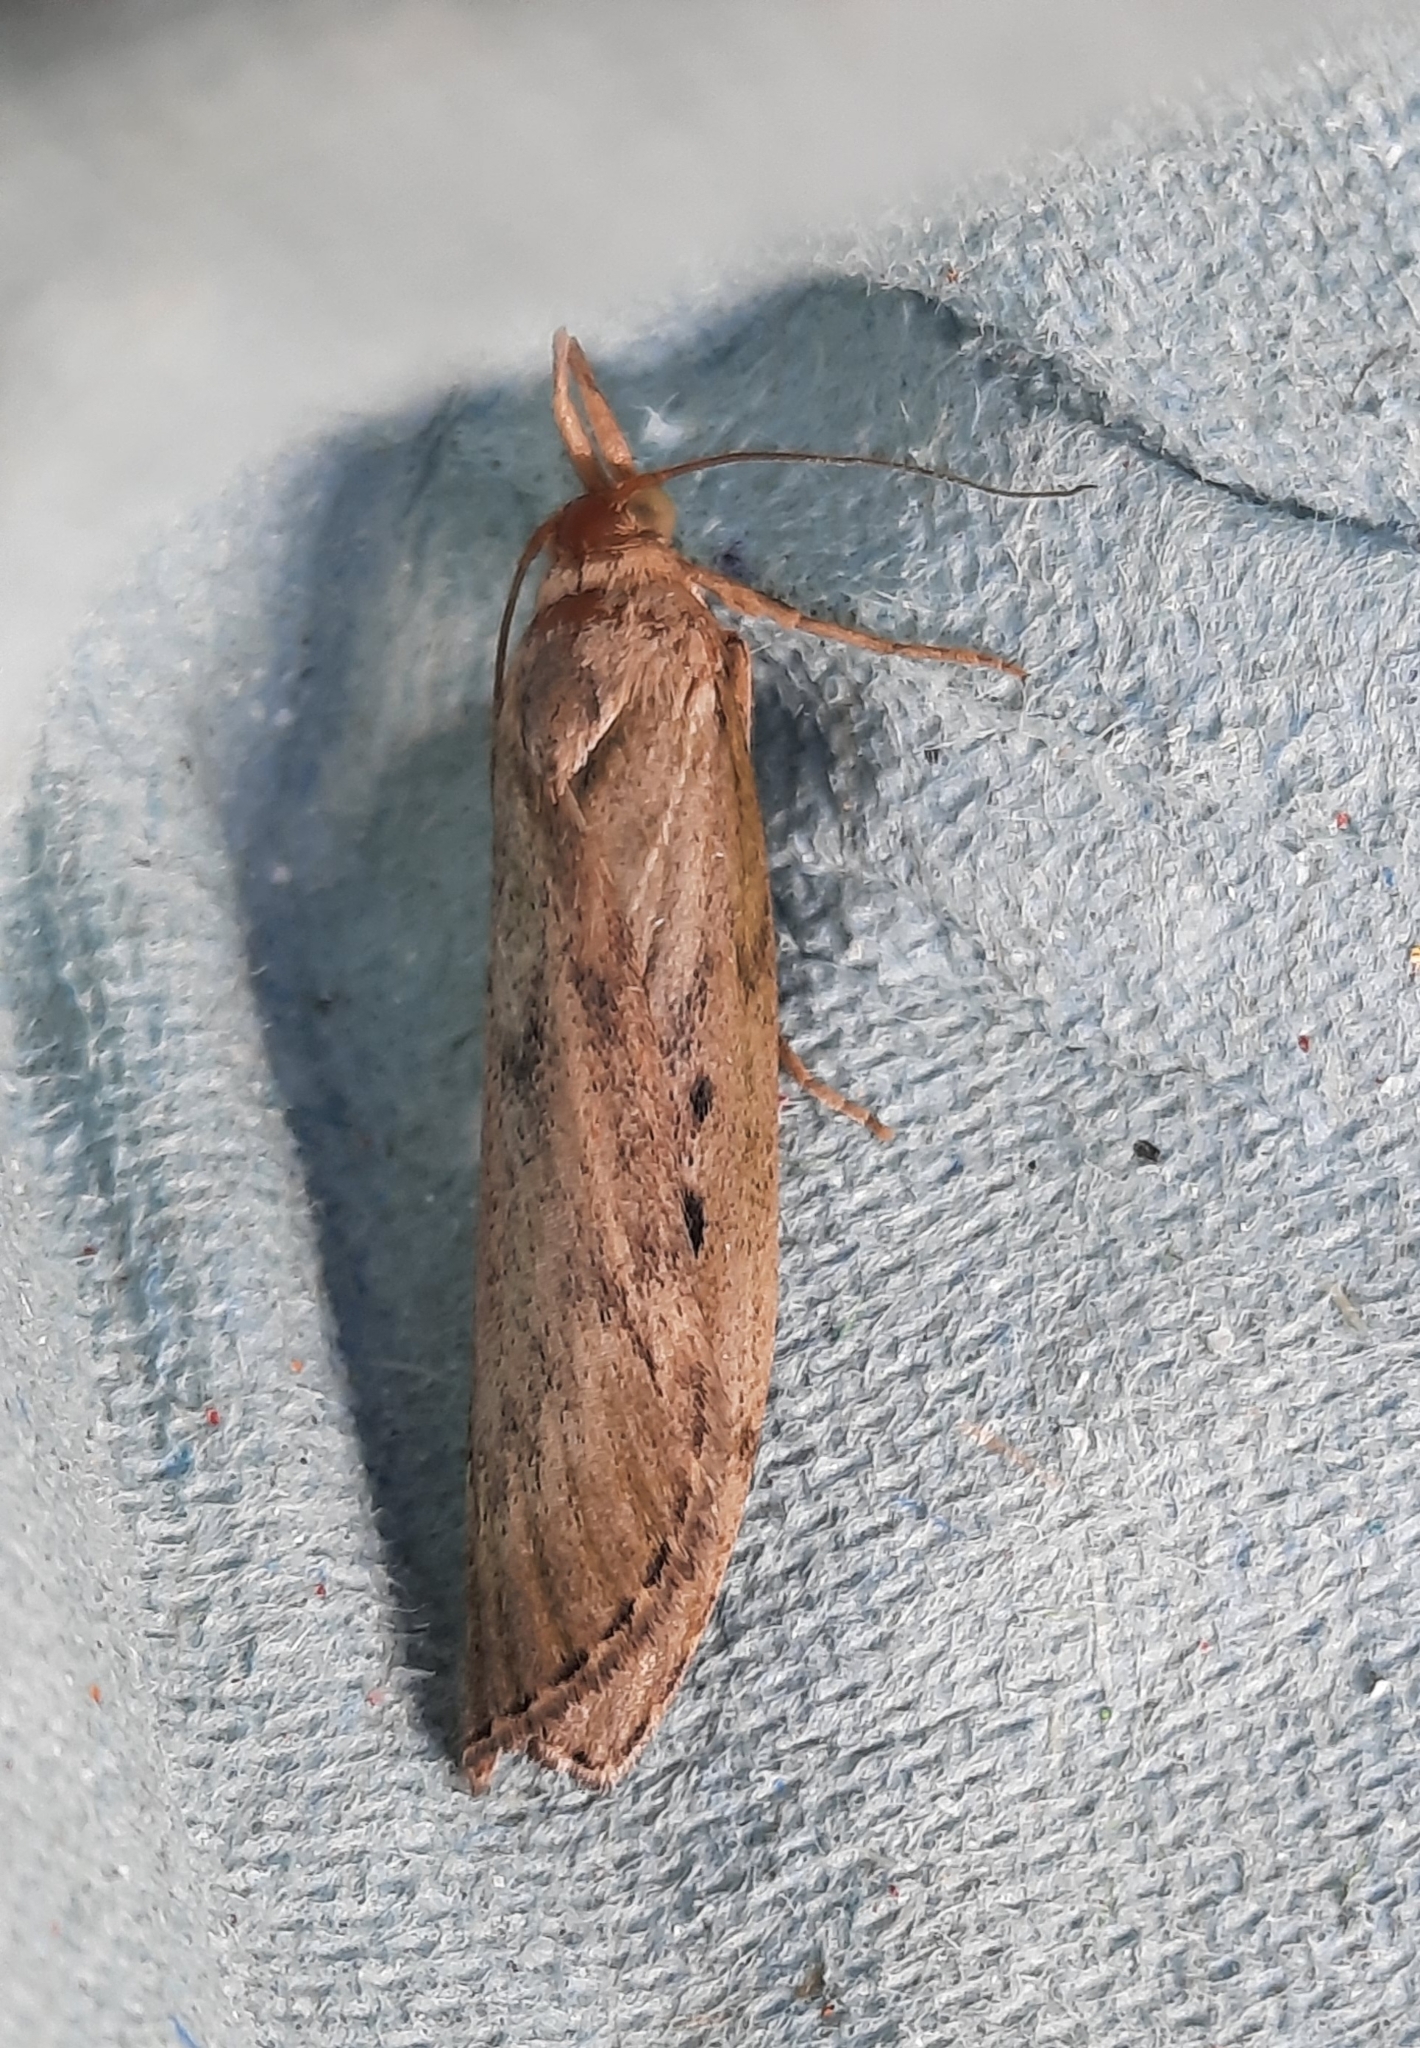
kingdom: Animalia
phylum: Arthropoda
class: Insecta
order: Lepidoptera
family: Pyralidae
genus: Aphomia
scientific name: Aphomia sociella
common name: Bee moth
